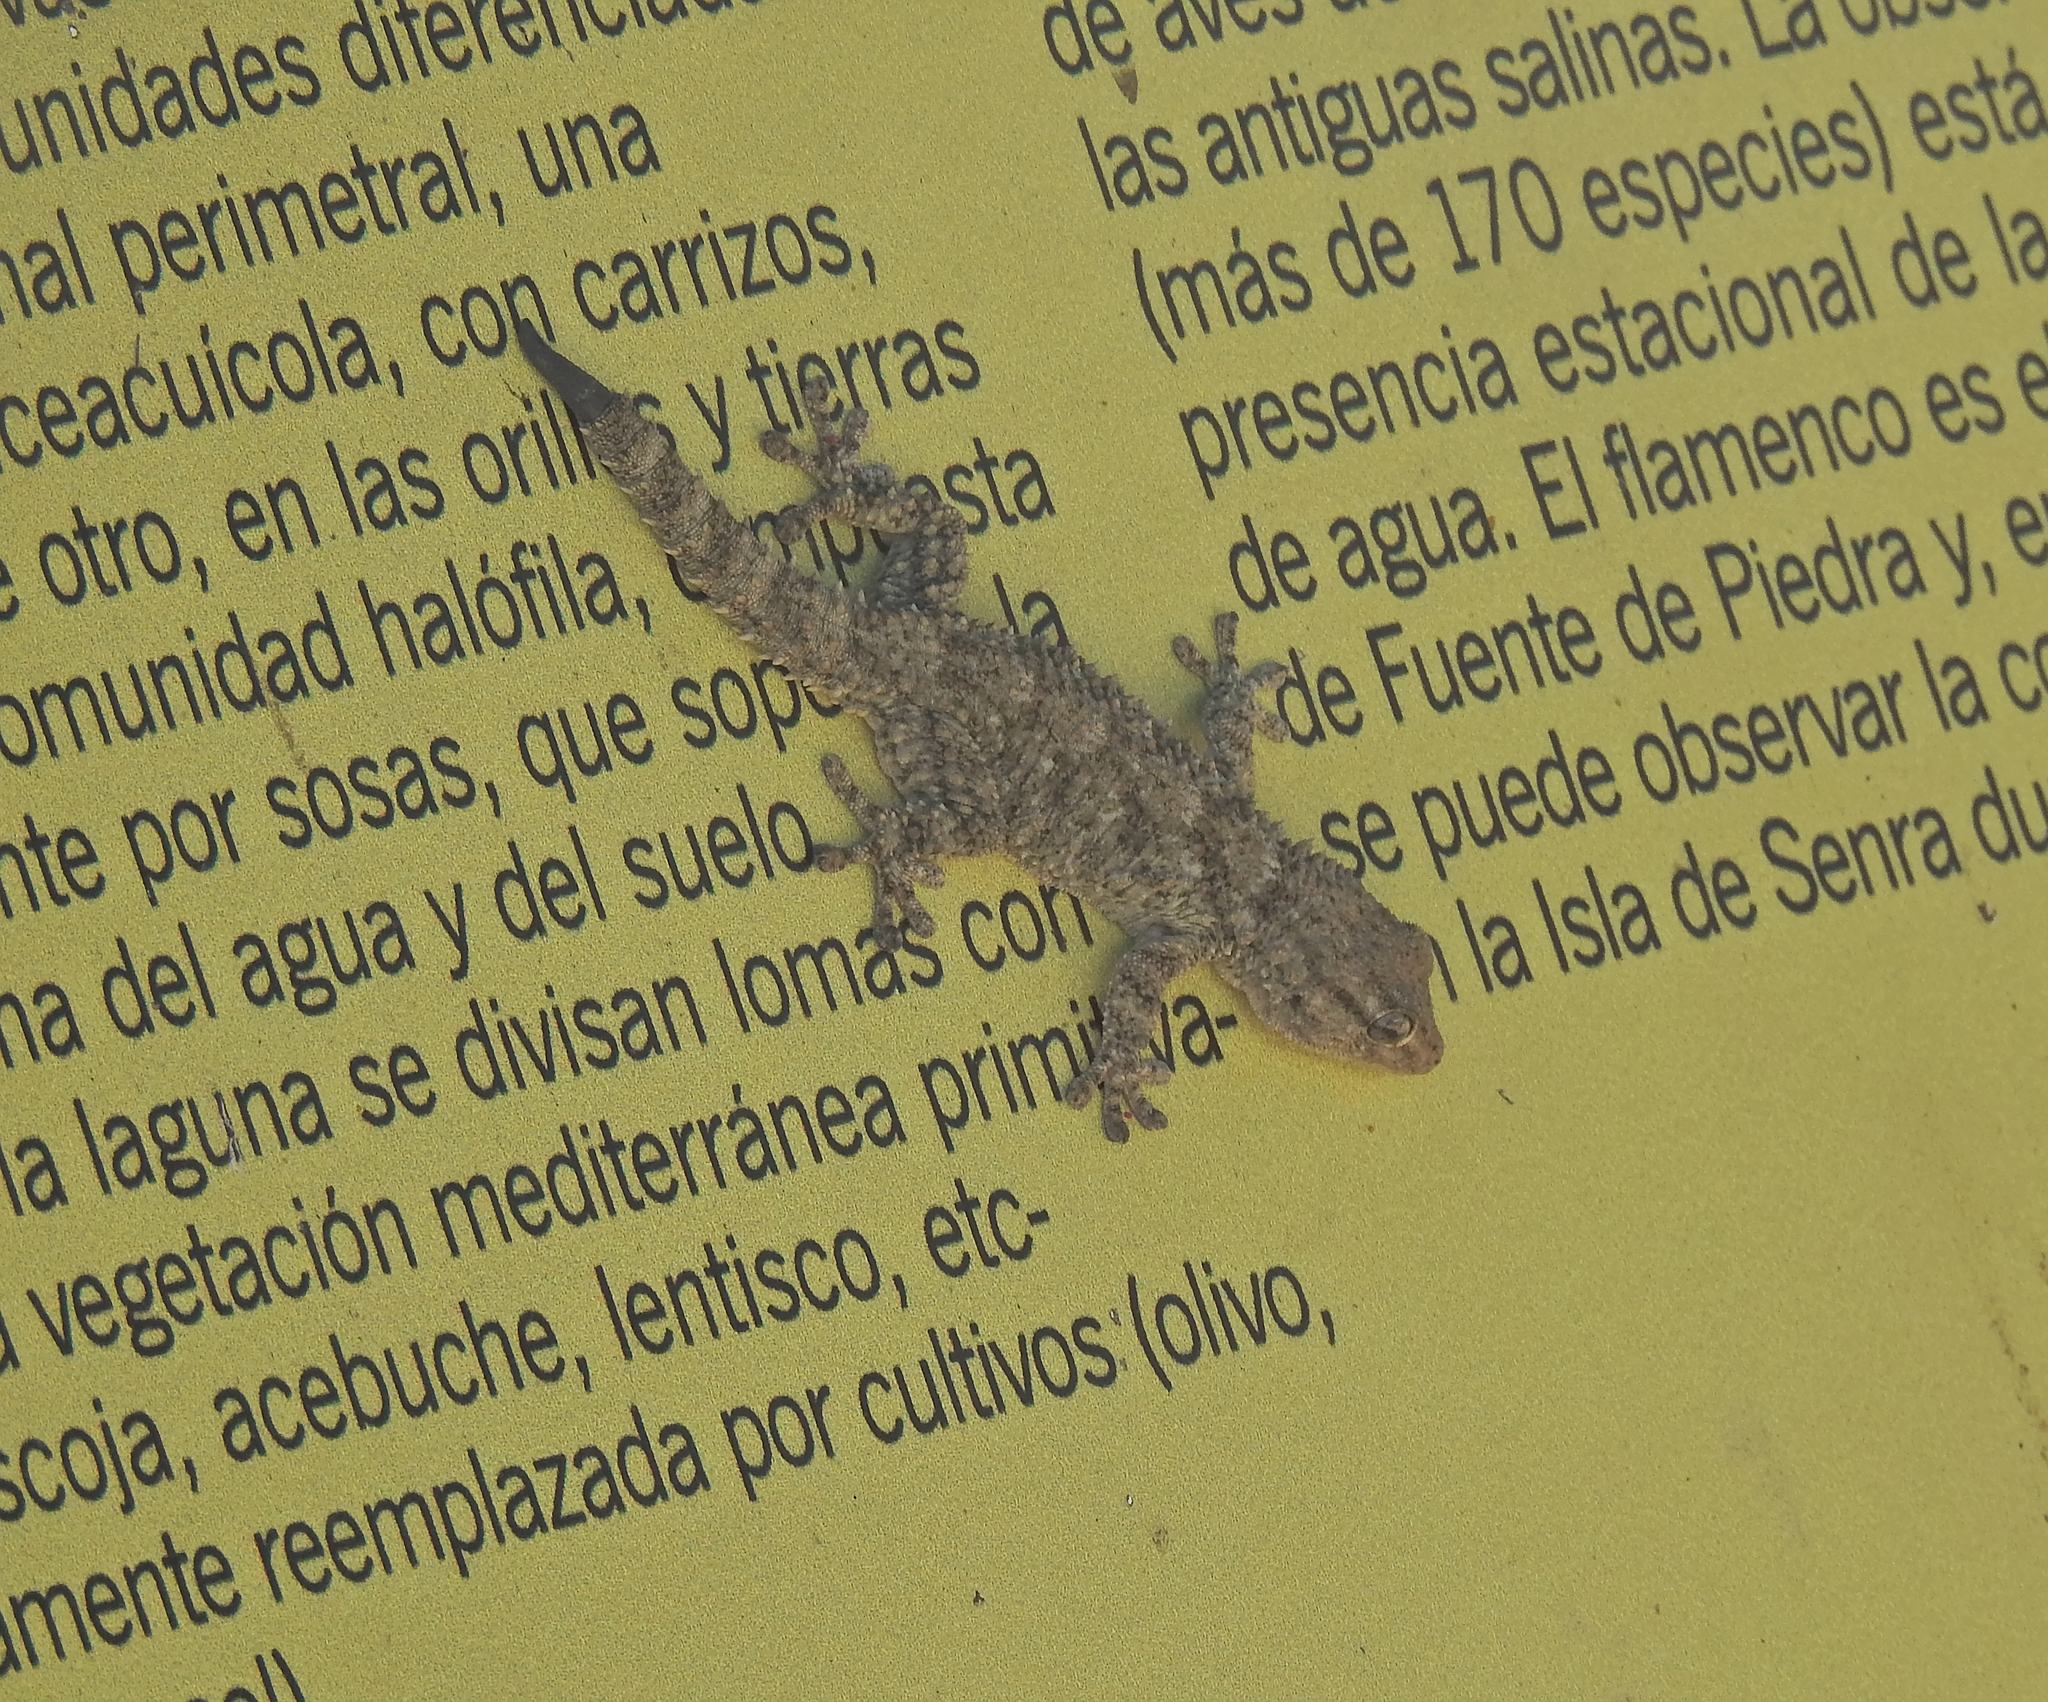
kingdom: Animalia
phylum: Chordata
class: Squamata
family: Phyllodactylidae
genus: Tarentola
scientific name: Tarentola mauritanica
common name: Moorish gecko
